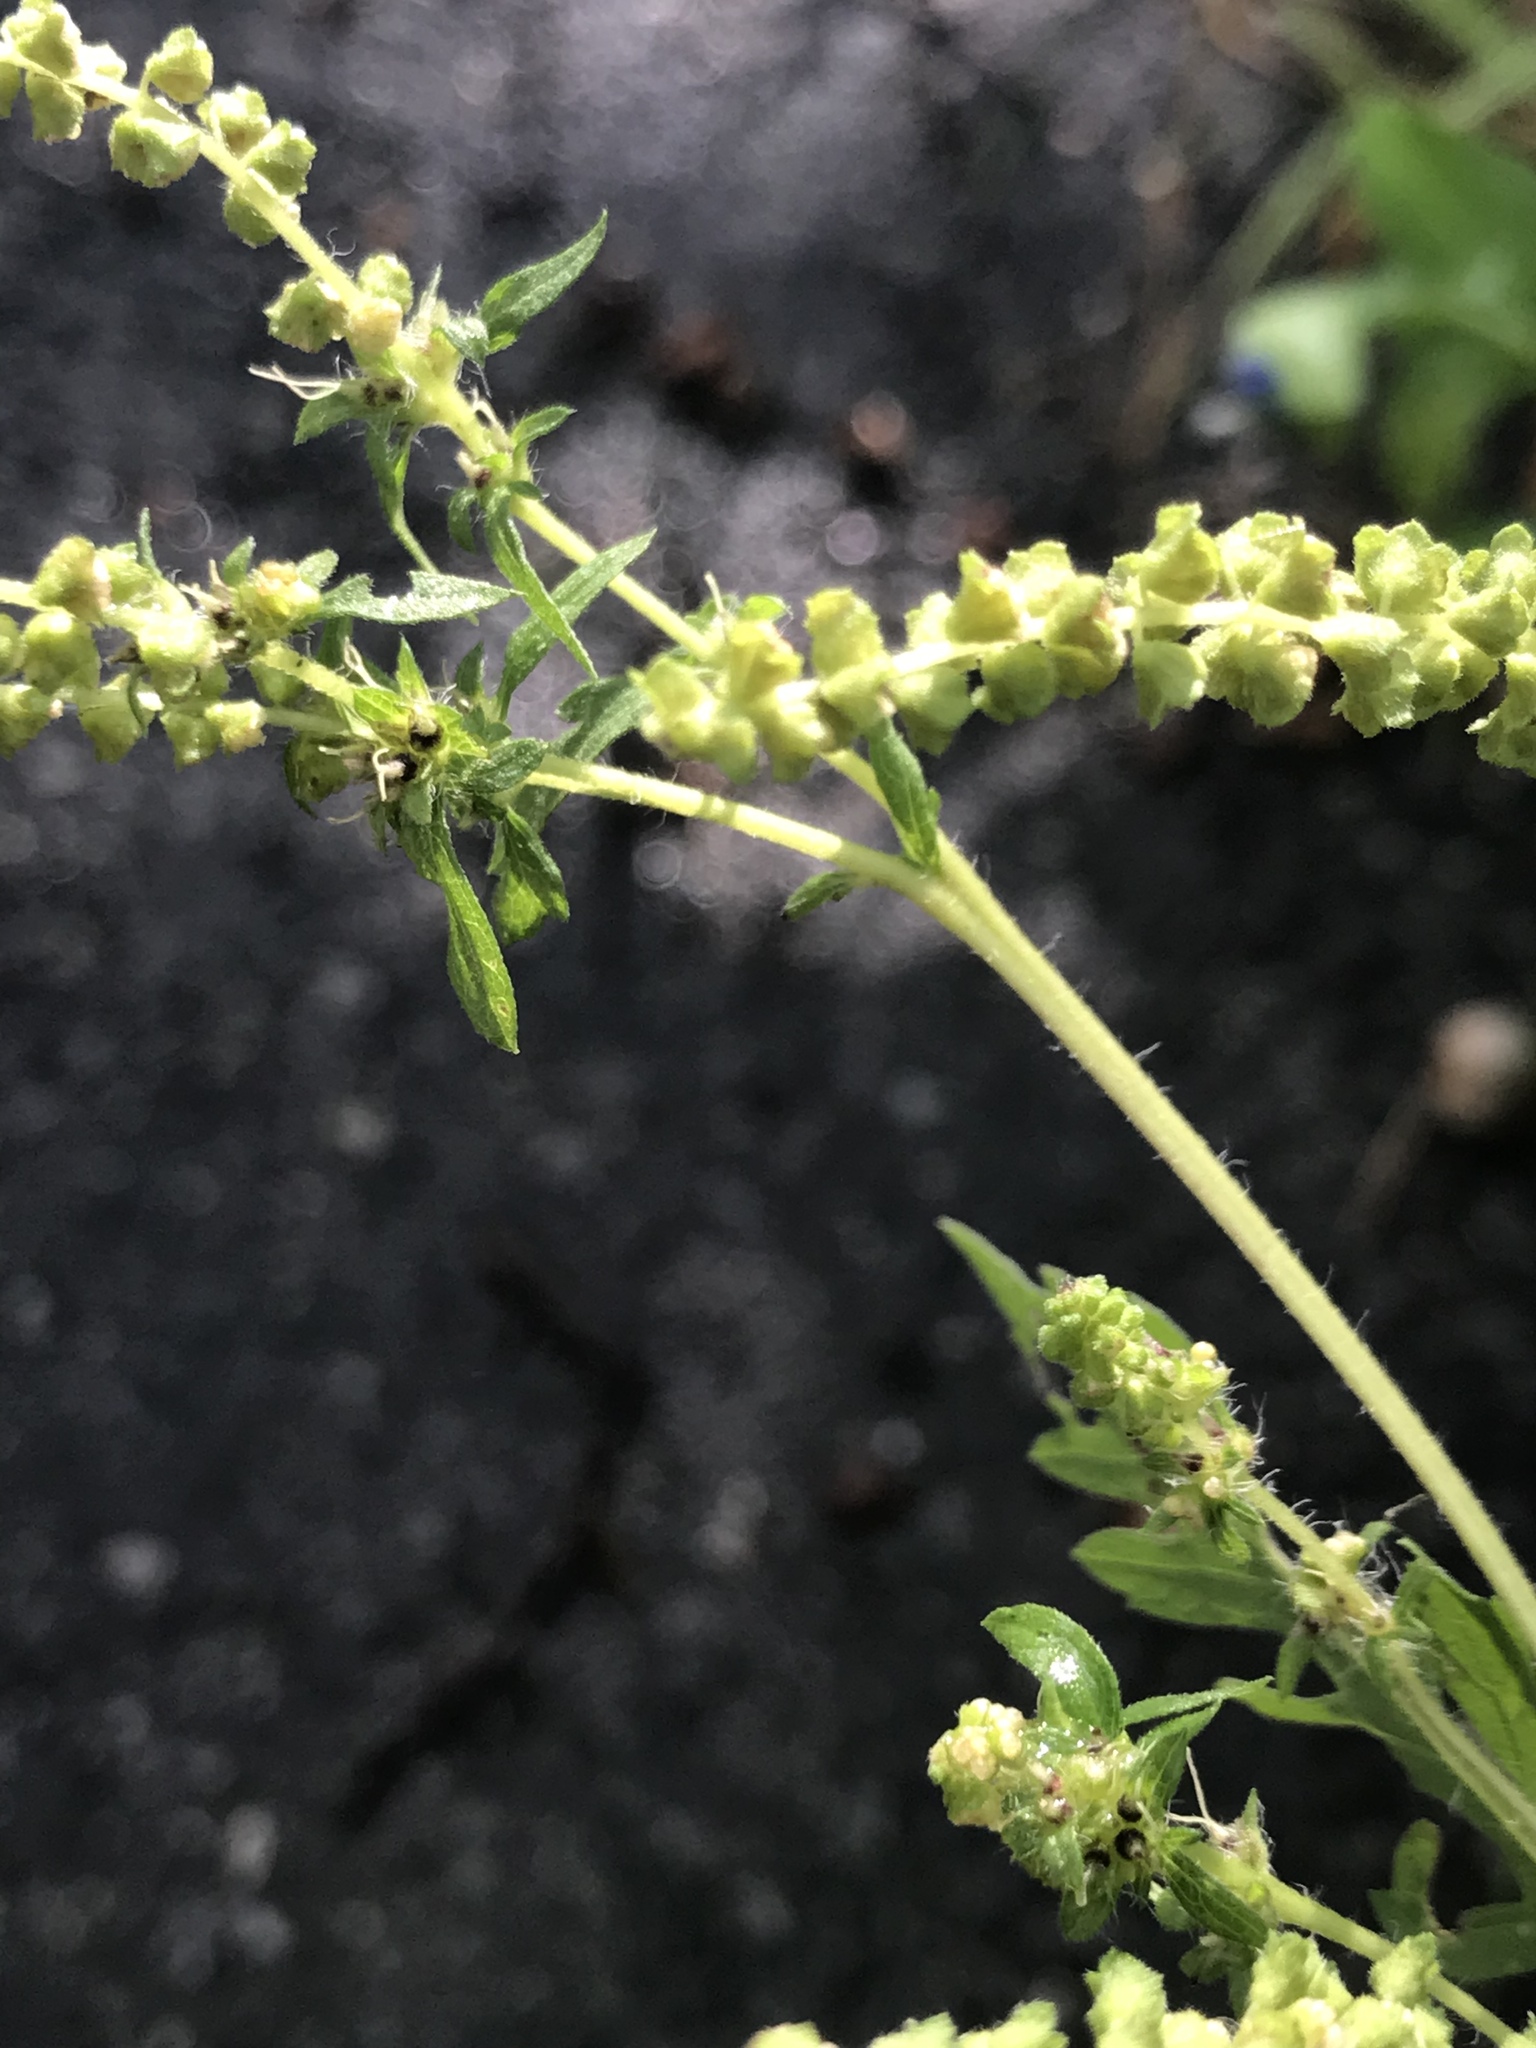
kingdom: Plantae
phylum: Tracheophyta
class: Magnoliopsida
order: Asterales
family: Asteraceae
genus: Ambrosia
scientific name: Ambrosia artemisiifolia
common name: Annual ragweed
